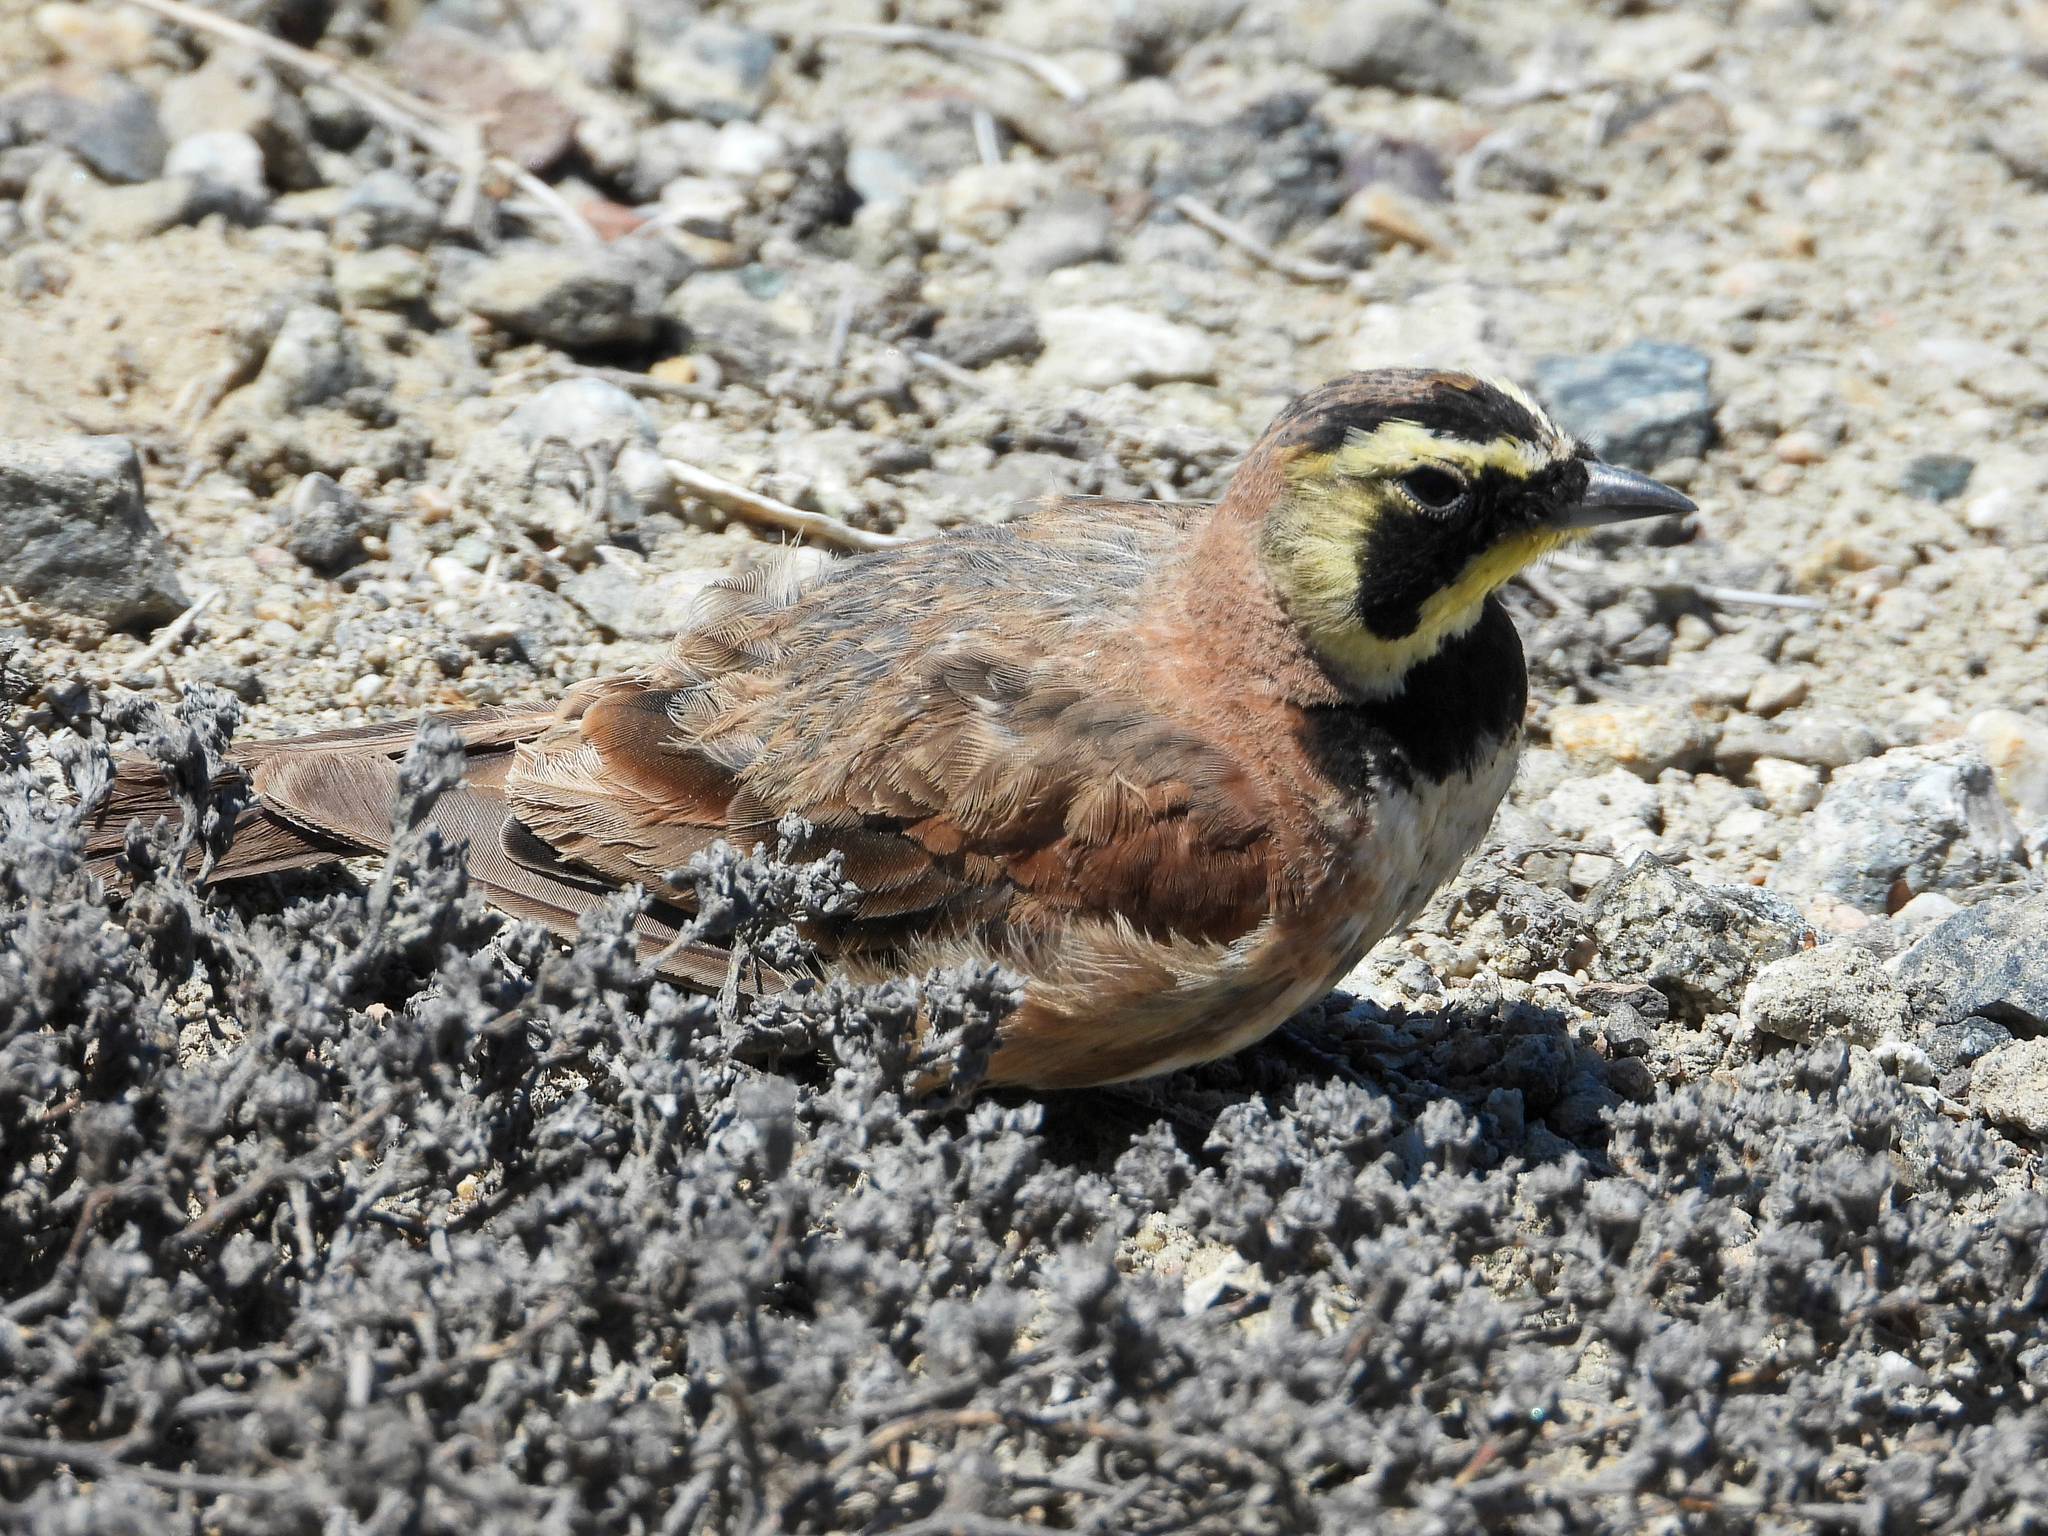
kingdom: Animalia
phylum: Chordata
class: Aves
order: Passeriformes
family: Alaudidae
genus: Eremophila
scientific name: Eremophila alpestris
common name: Horned lark
